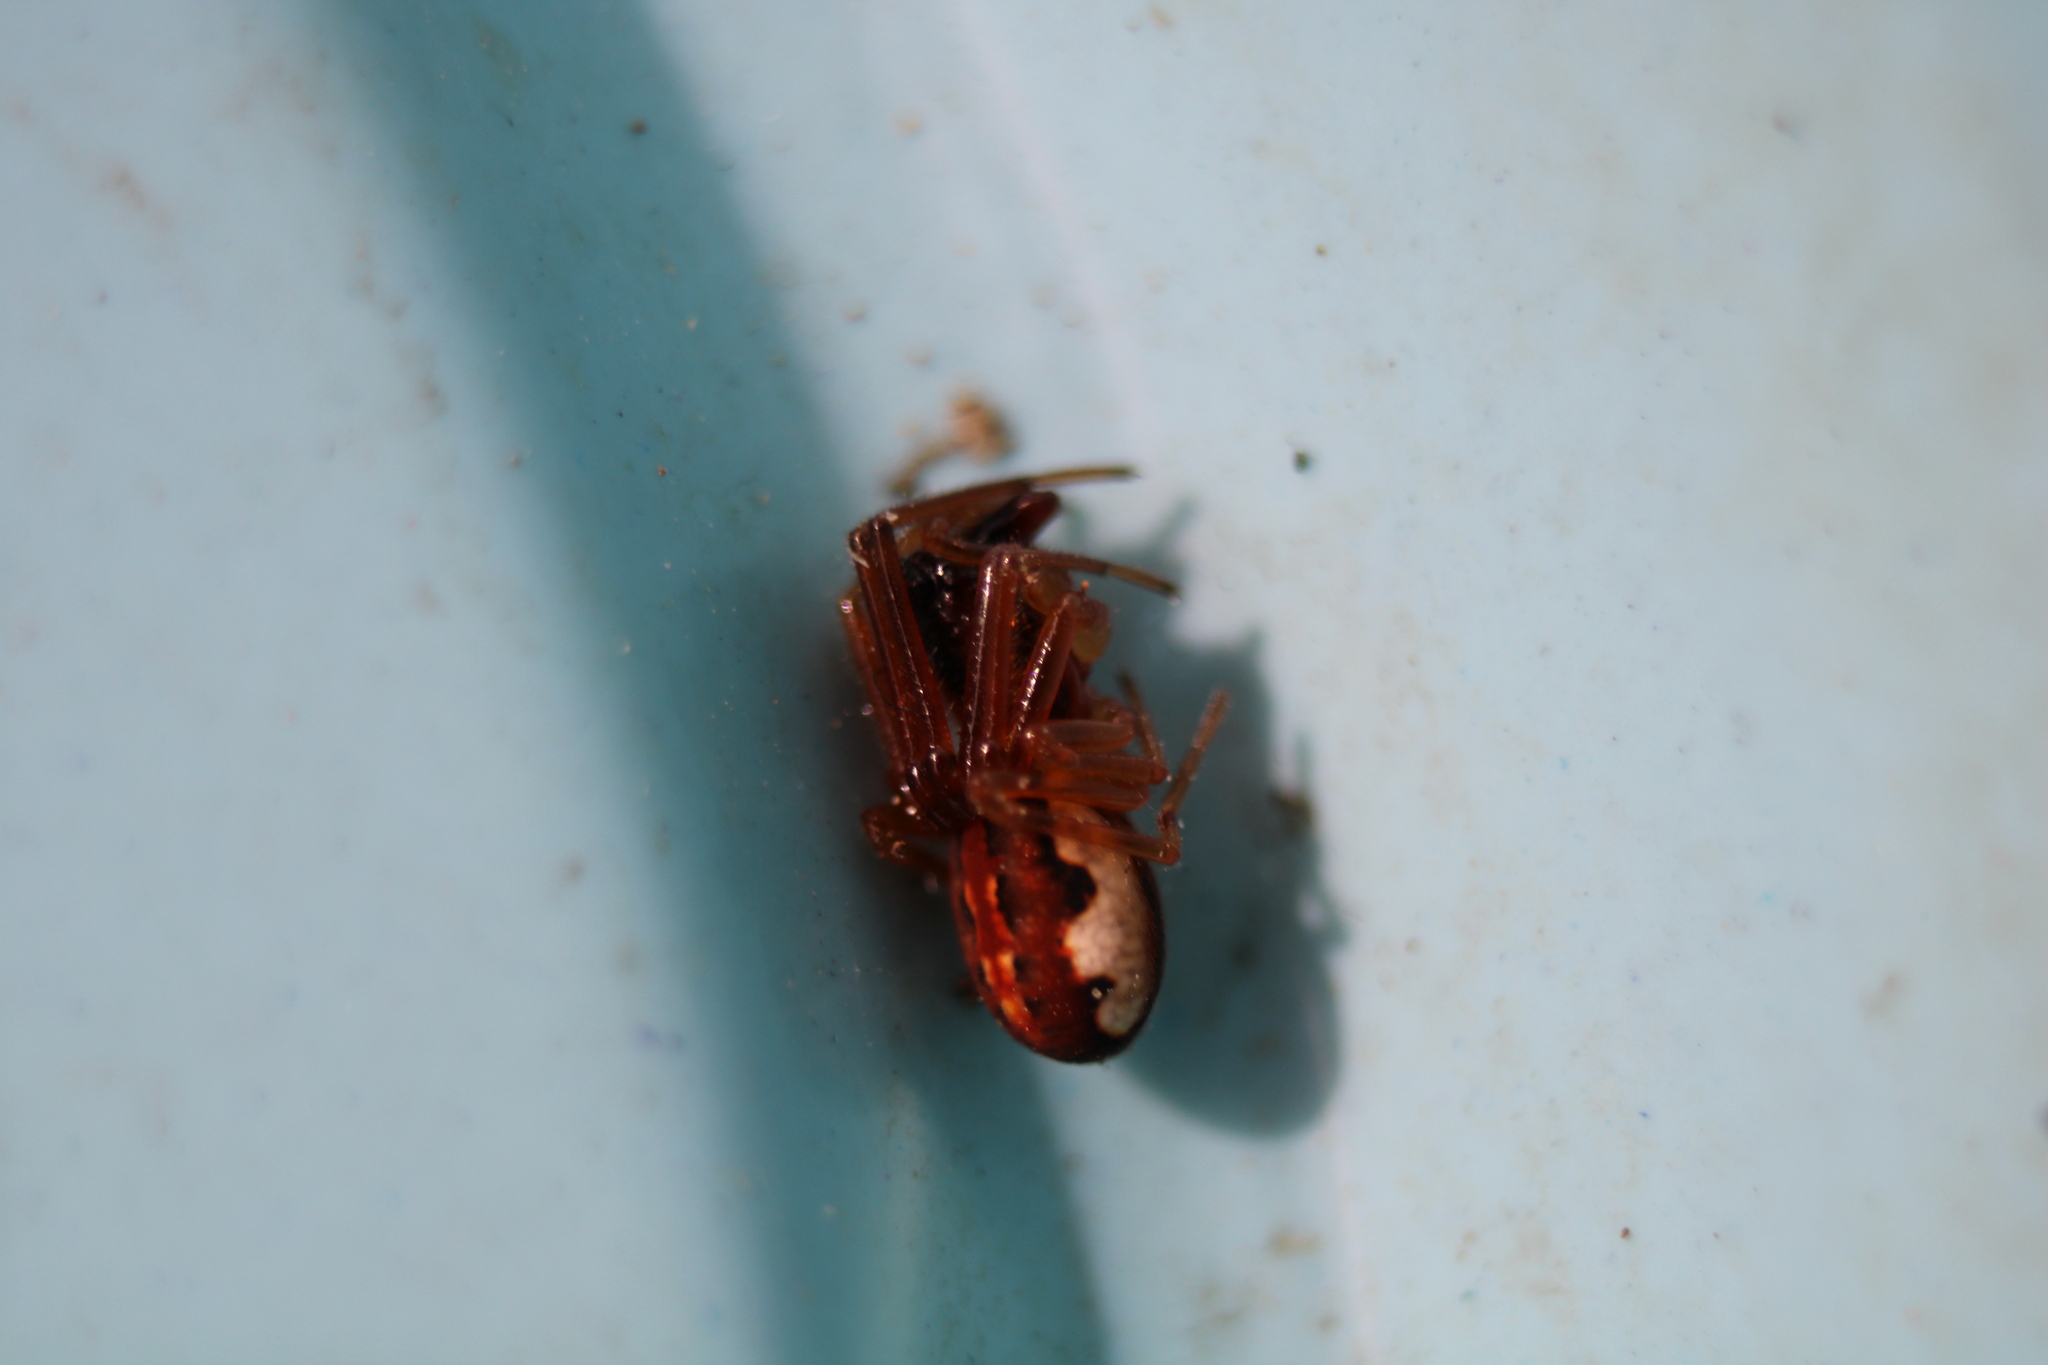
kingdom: Animalia
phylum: Arthropoda
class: Arachnida
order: Araneae
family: Tetragnathidae
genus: Pachygnatha
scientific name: Pachygnatha autumnalis
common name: Big-eyed thick-jawed spider
